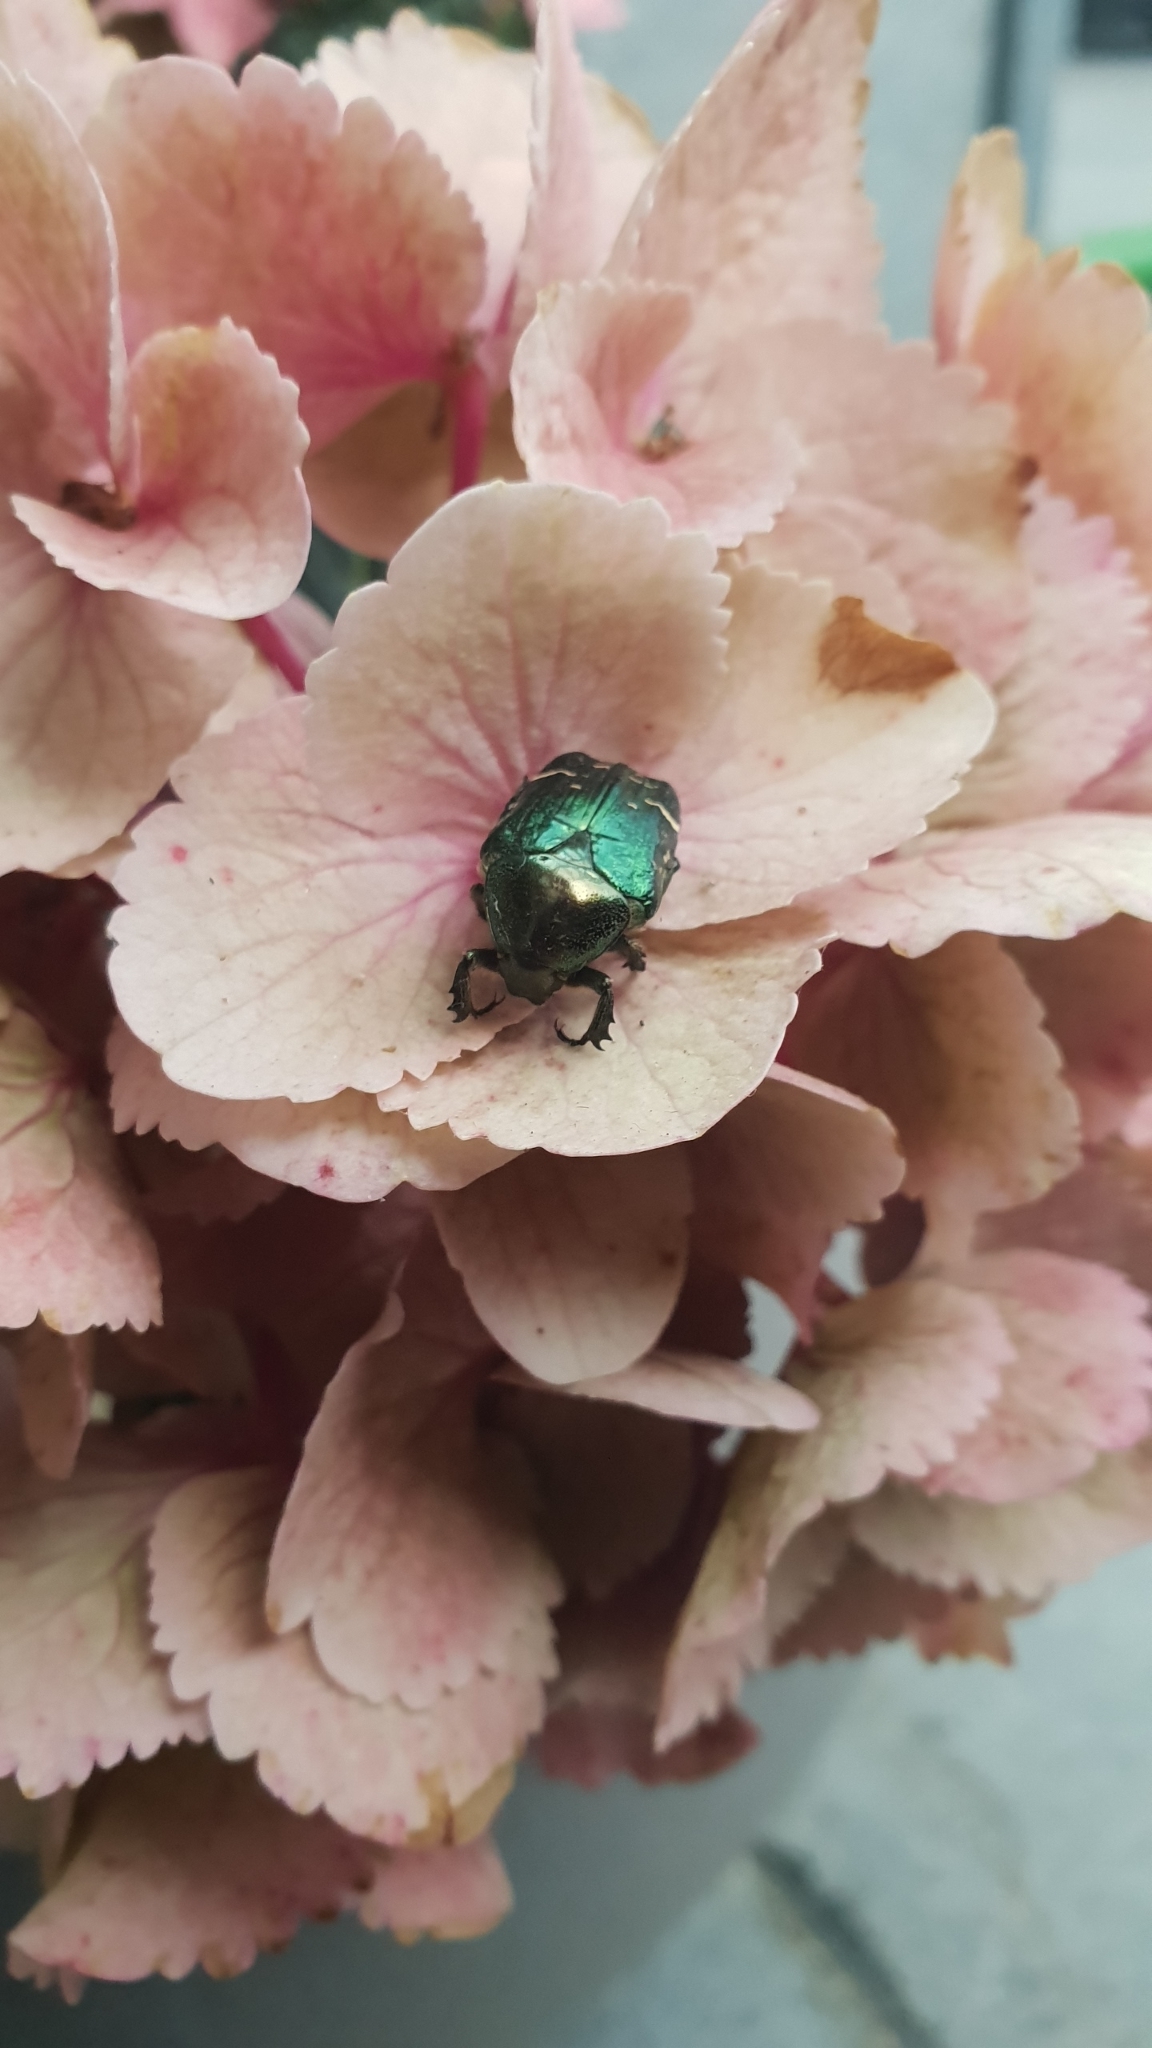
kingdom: Animalia
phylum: Arthropoda
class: Insecta
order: Coleoptera
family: Scarabaeidae
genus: Cetonia
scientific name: Cetonia aurata
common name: Rose chafer
